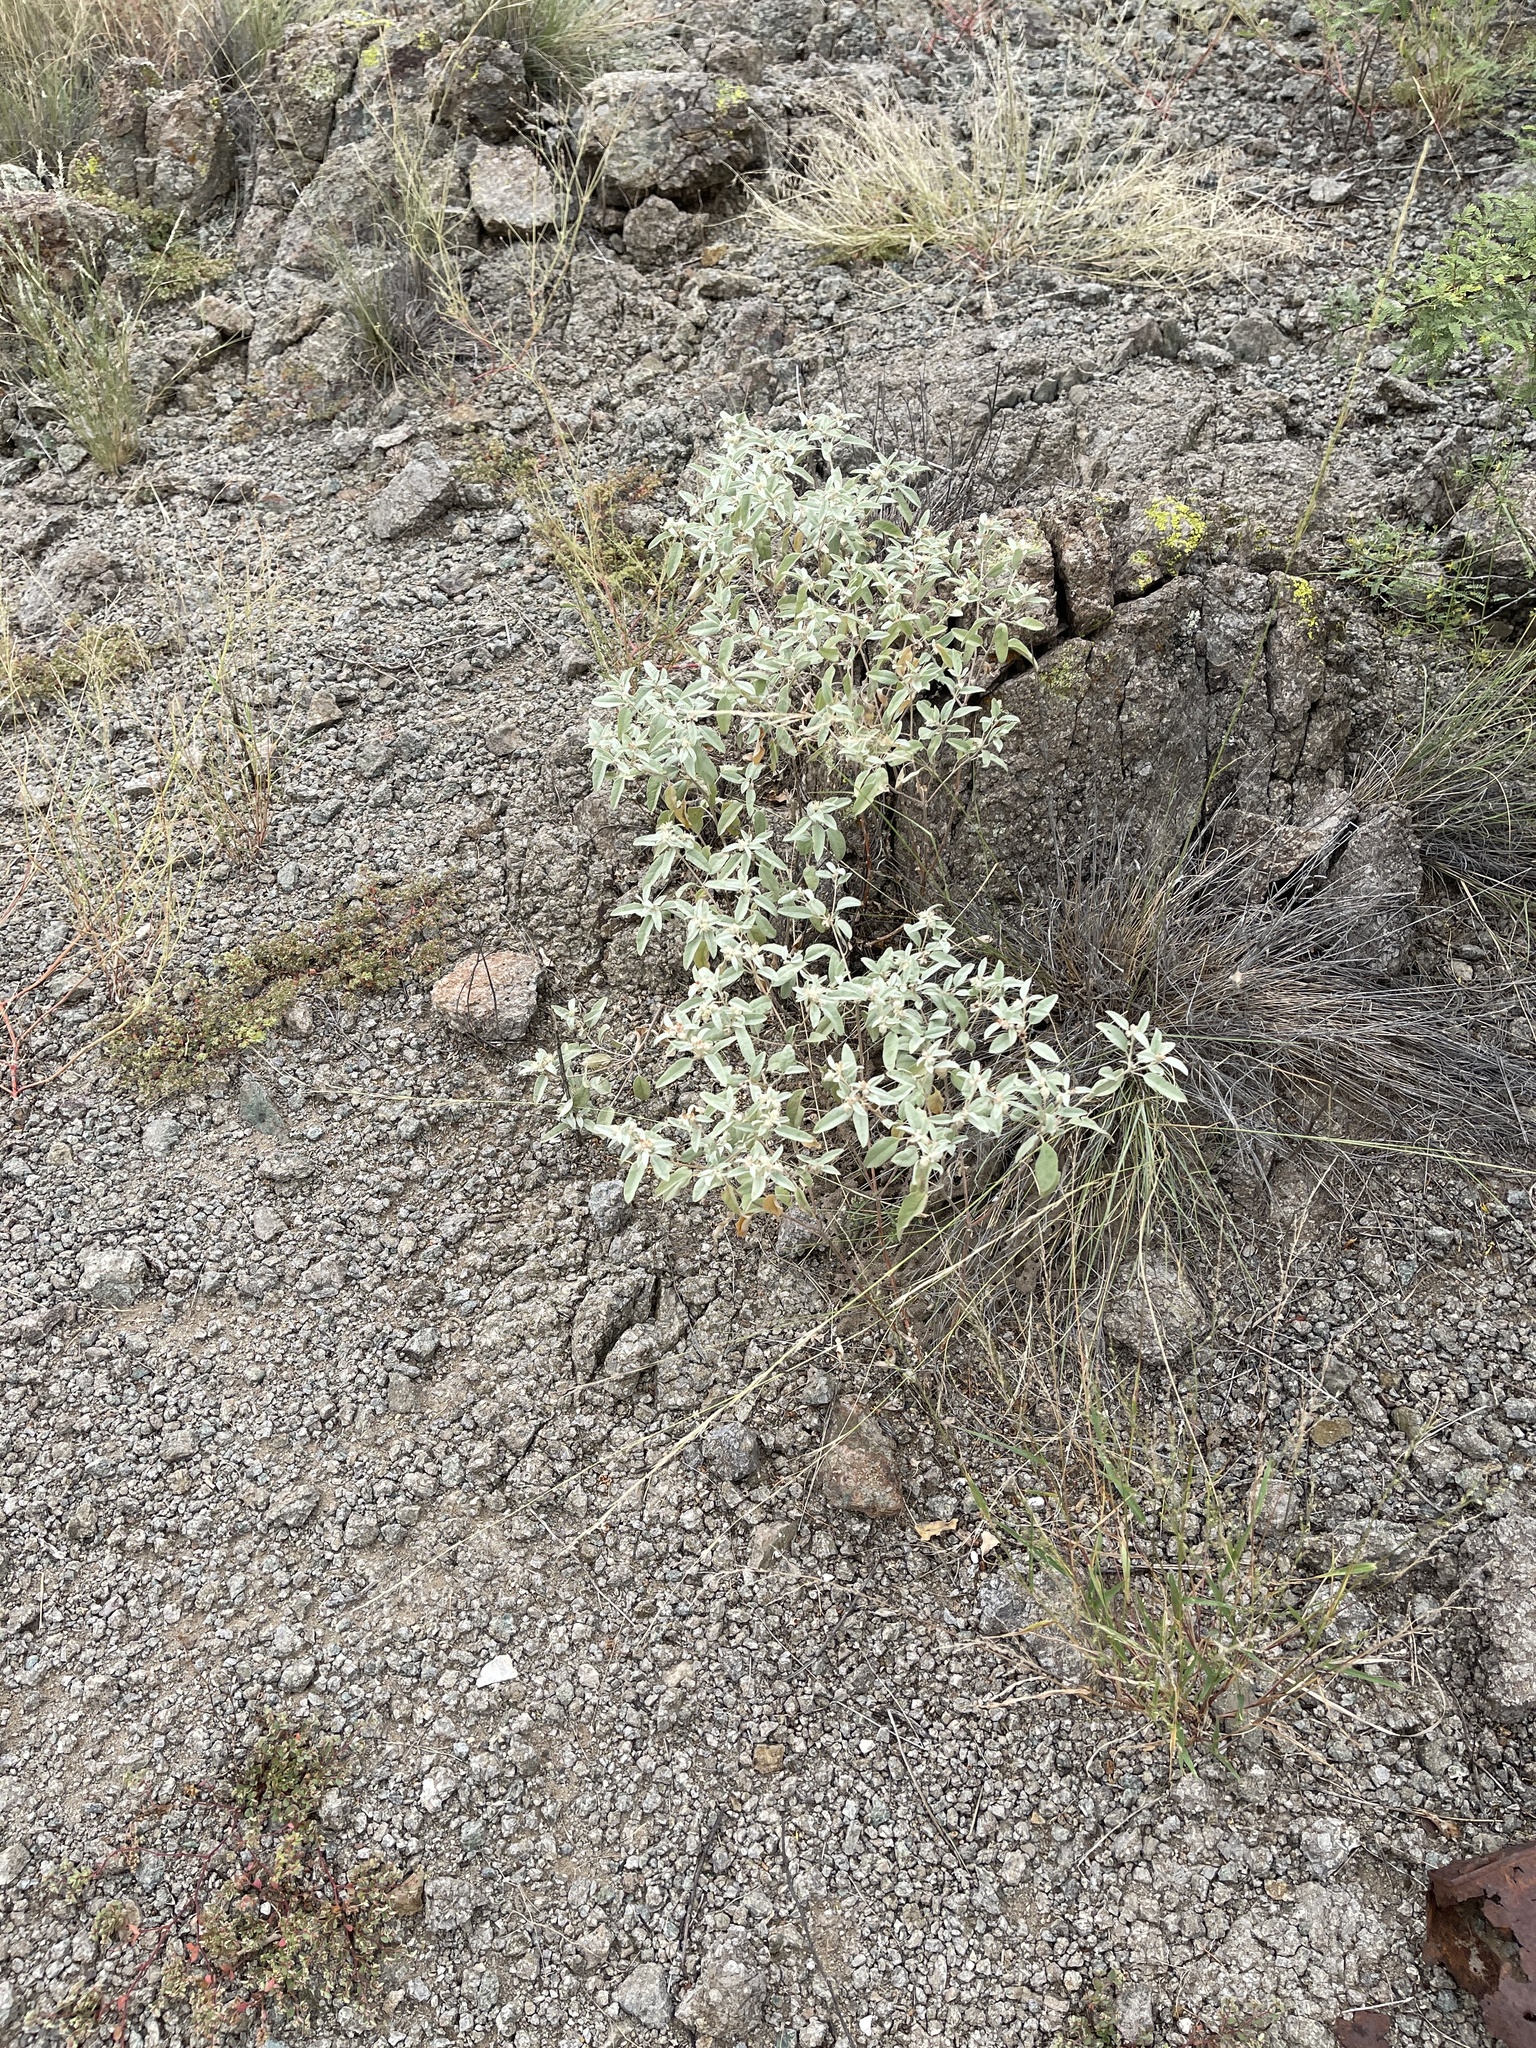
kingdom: Plantae
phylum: Tracheophyta
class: Magnoliopsida
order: Malpighiales
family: Euphorbiaceae
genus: Croton
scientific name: Croton pottsii
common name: Leatherweed
